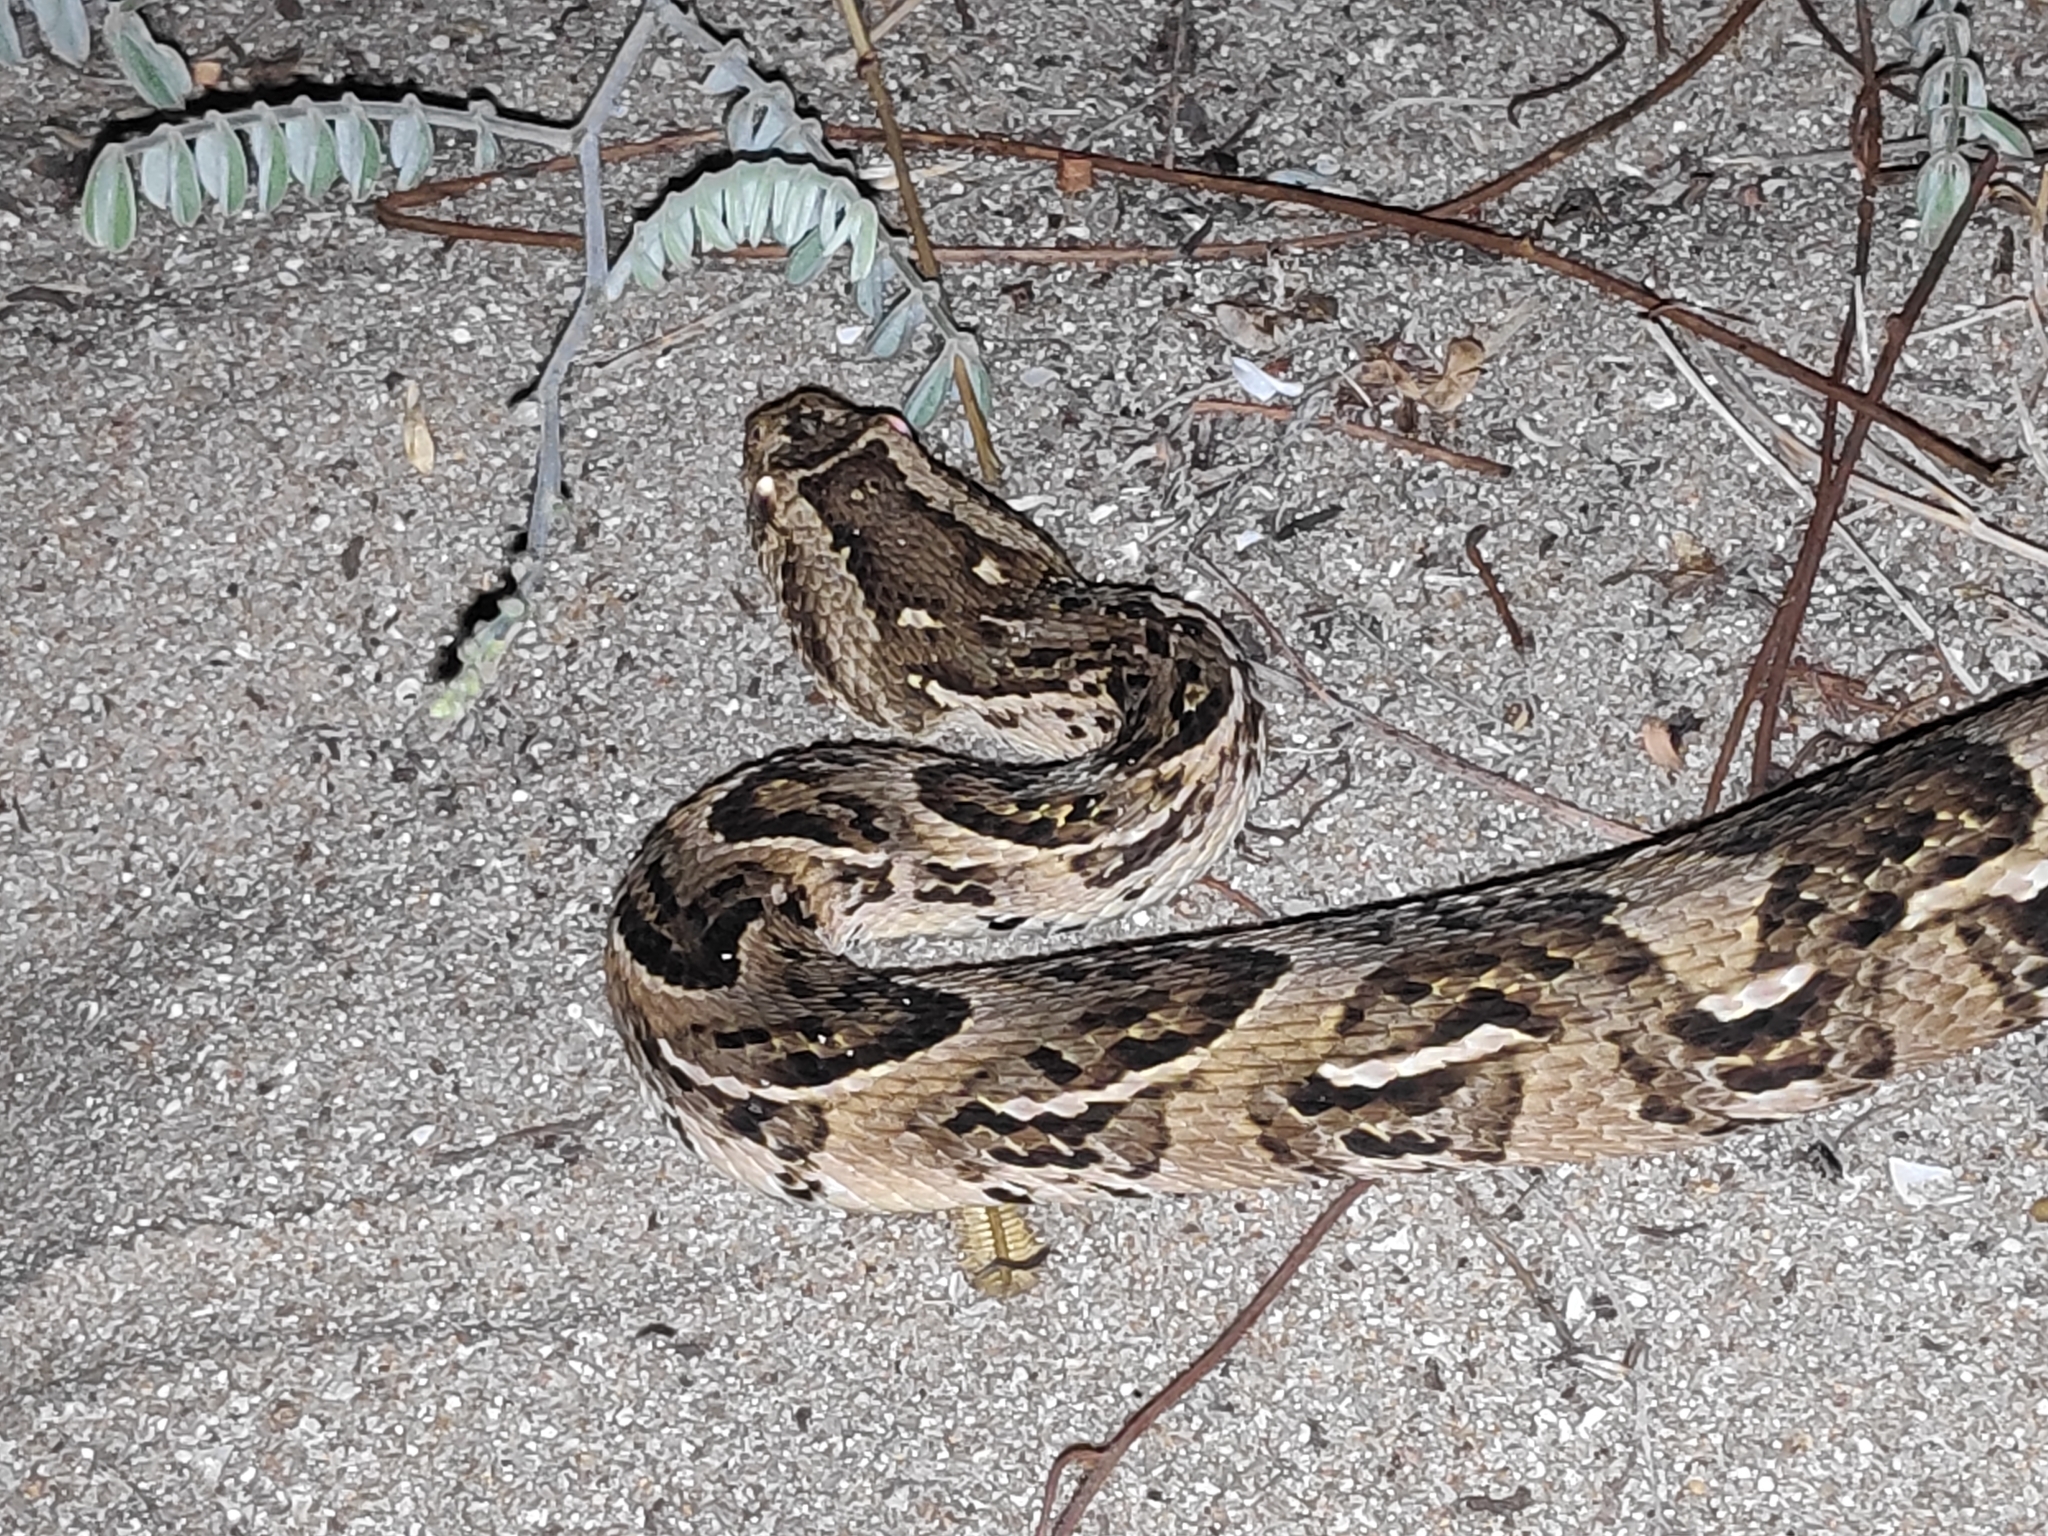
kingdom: Animalia
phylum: Chordata
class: Squamata
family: Viperidae
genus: Bitis
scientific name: Bitis arietans
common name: Puff adder
